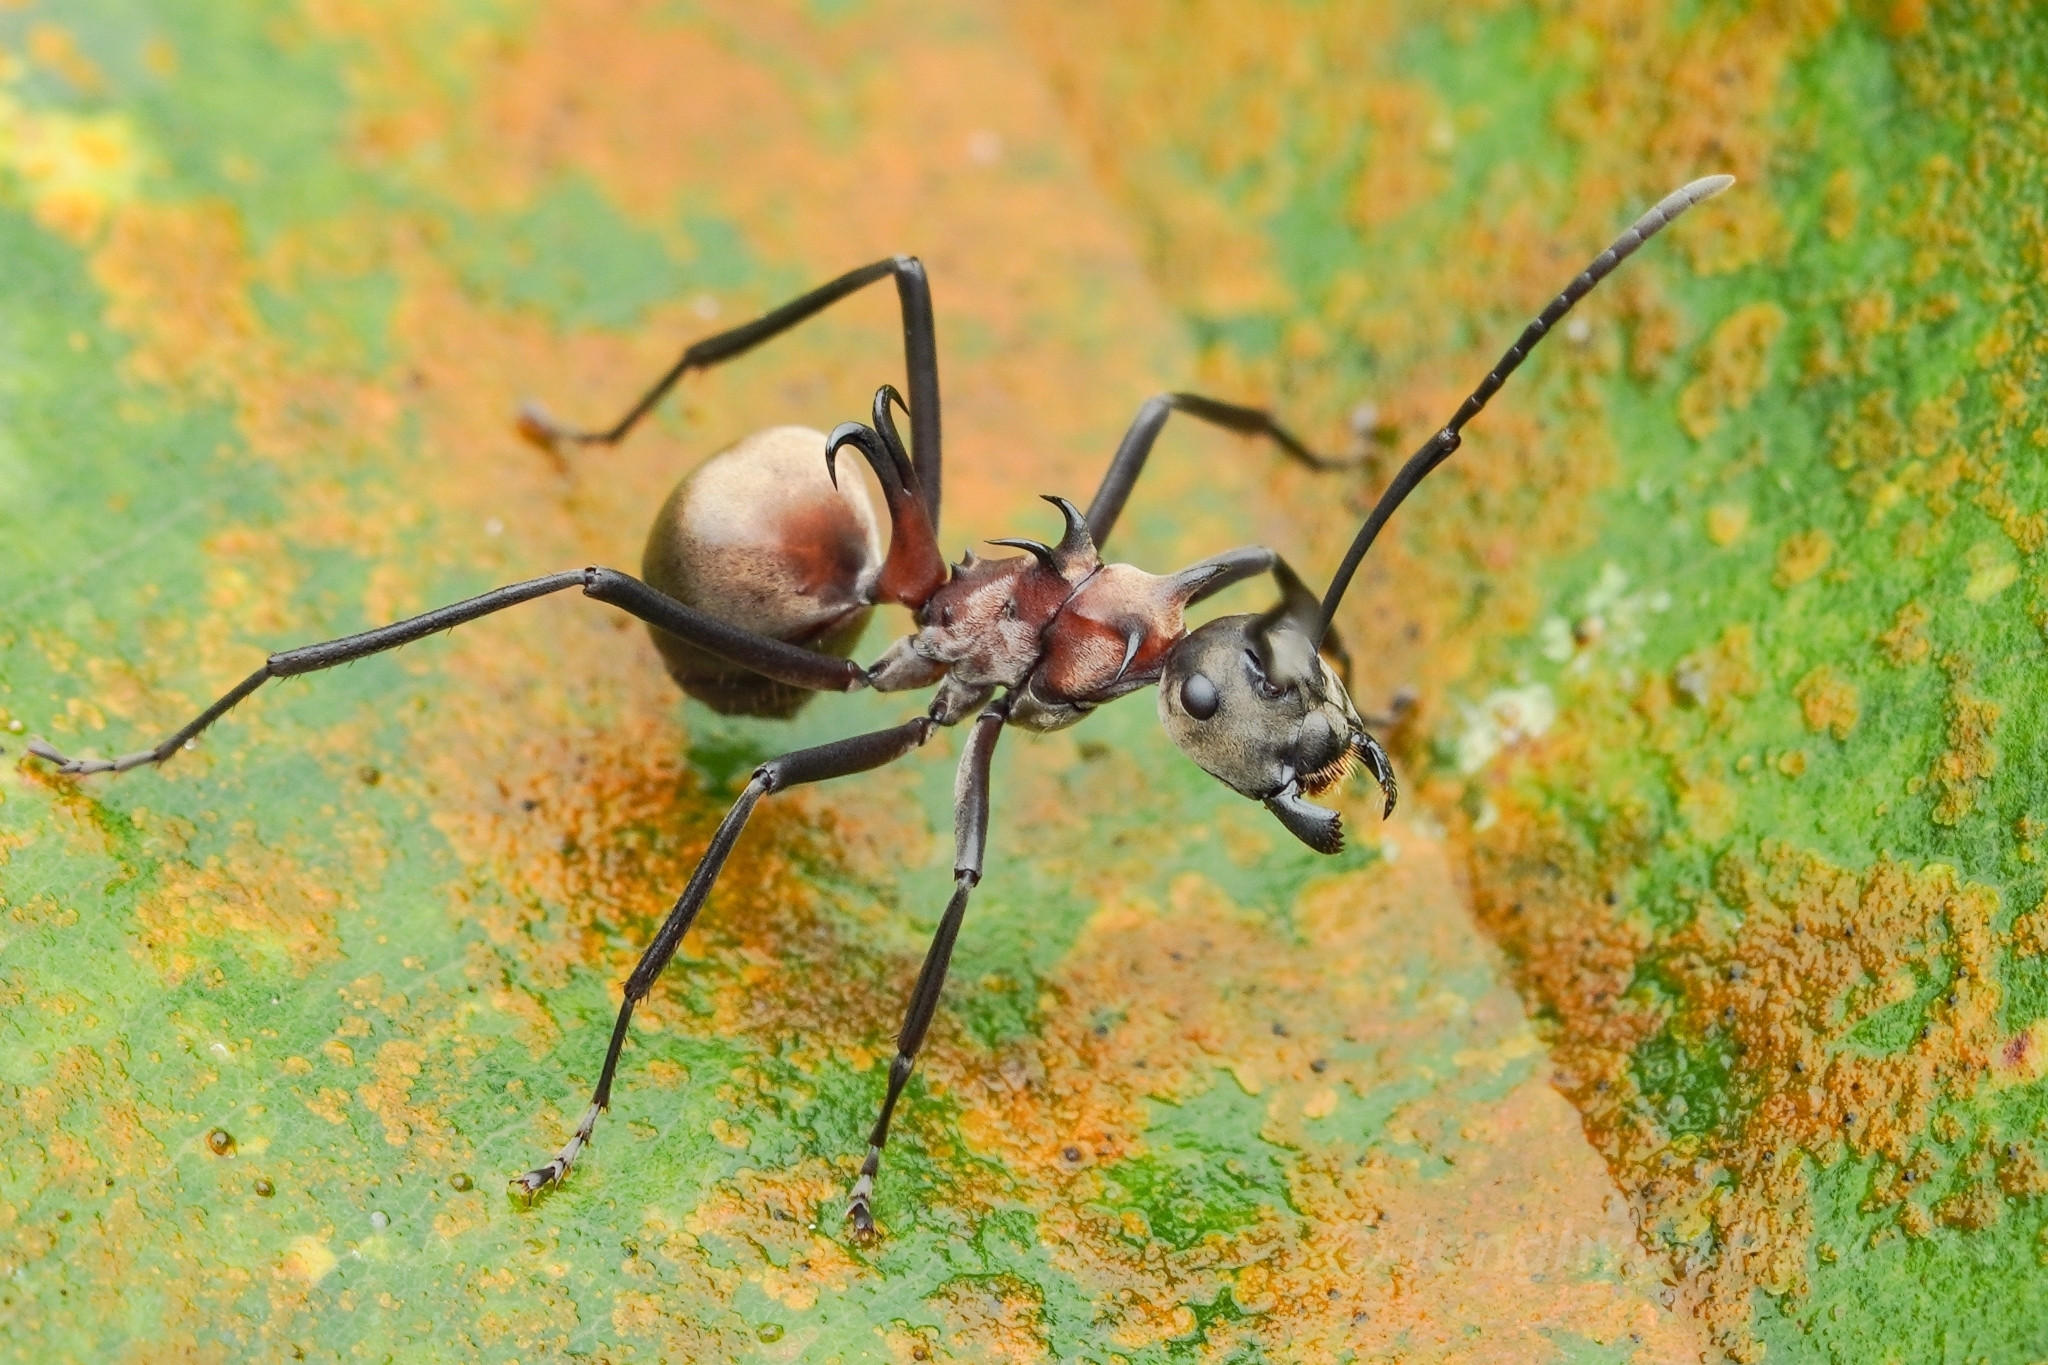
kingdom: Animalia
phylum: Arthropoda
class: Insecta
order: Hymenoptera
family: Formicidae
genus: Polyrhachis
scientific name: Polyrhachis olybria
